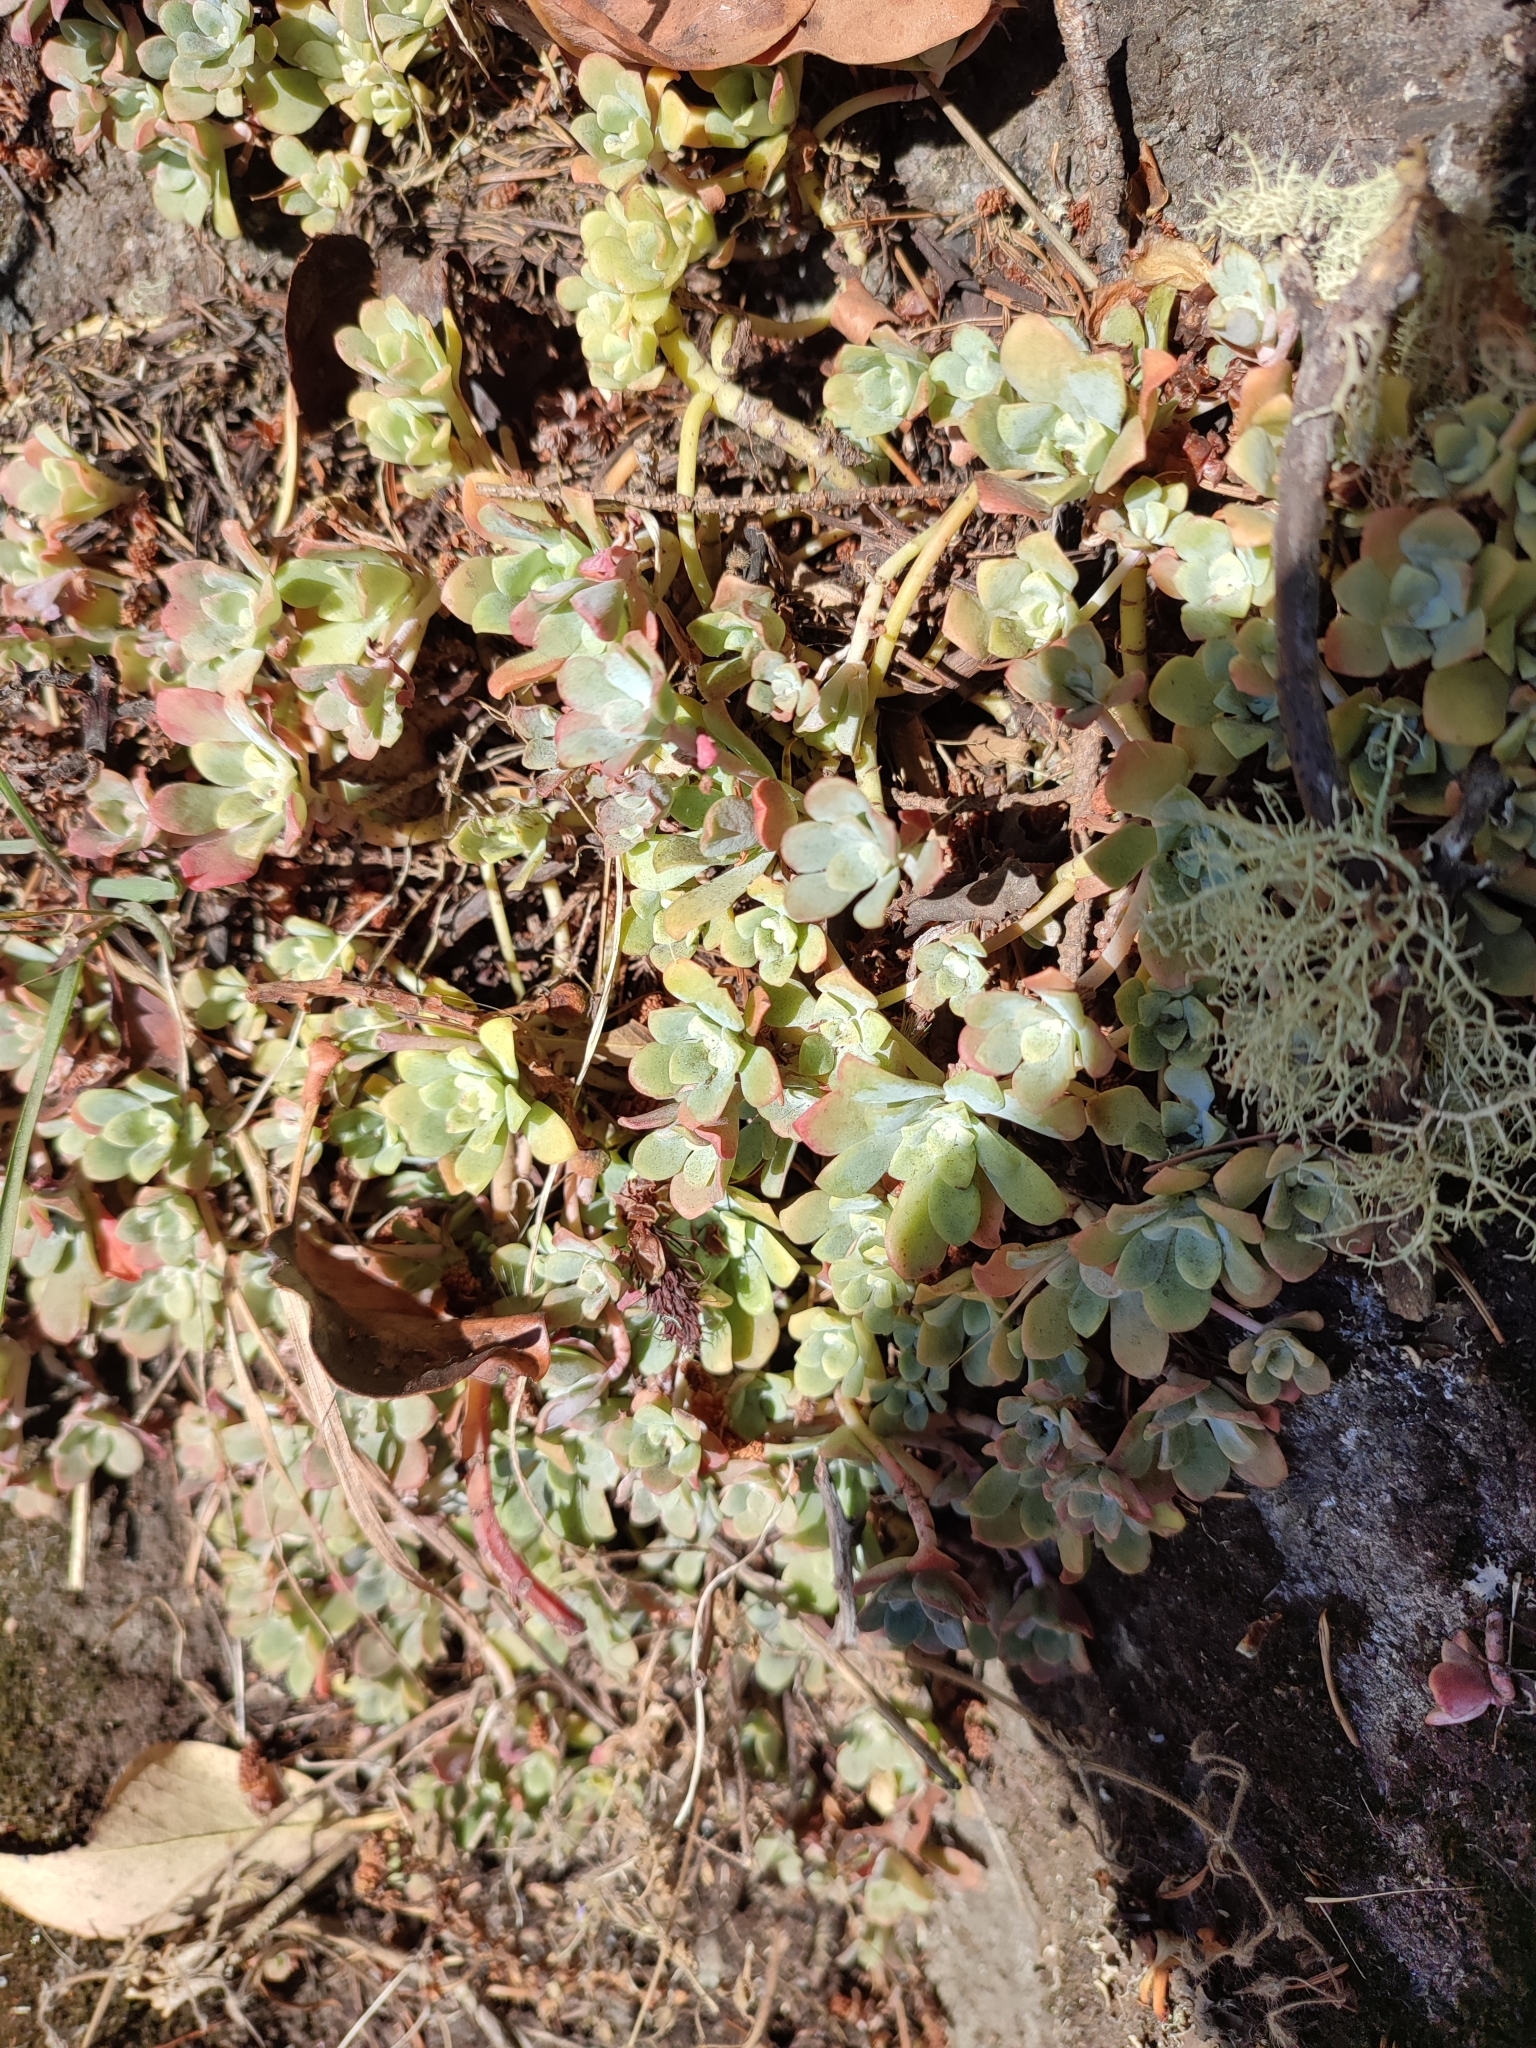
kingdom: Plantae
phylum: Tracheophyta
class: Magnoliopsida
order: Saxifragales
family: Crassulaceae
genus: Sedum
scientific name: Sedum spathulifolium
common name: Colorado stonecrop
